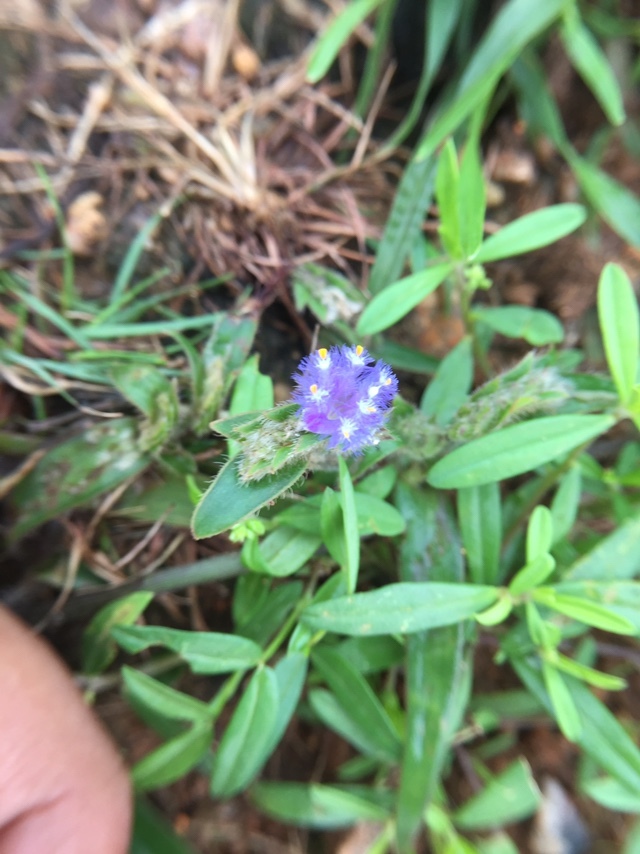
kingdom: Plantae
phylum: Tracheophyta
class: Liliopsida
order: Commelinales
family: Commelinaceae
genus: Cyanotis
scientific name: Cyanotis adscendens
